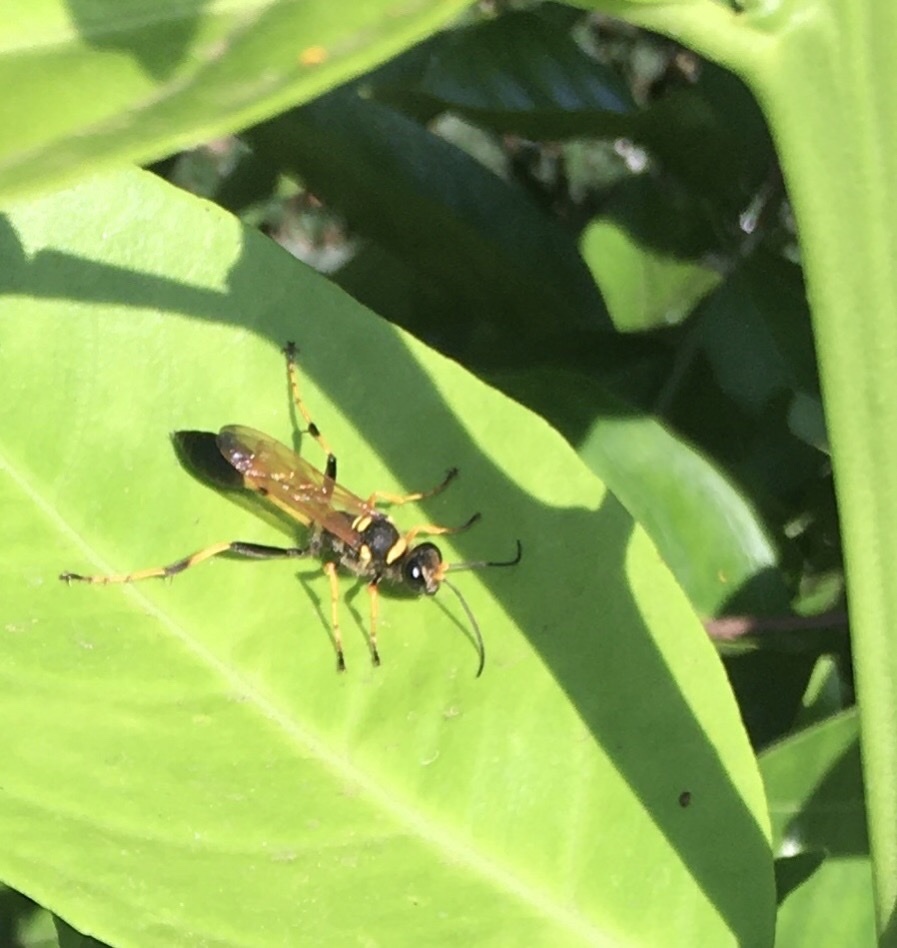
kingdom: Animalia
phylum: Arthropoda
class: Insecta
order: Hymenoptera
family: Sphecidae
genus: Sceliphron
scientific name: Sceliphron caementarium
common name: Mud dauber
